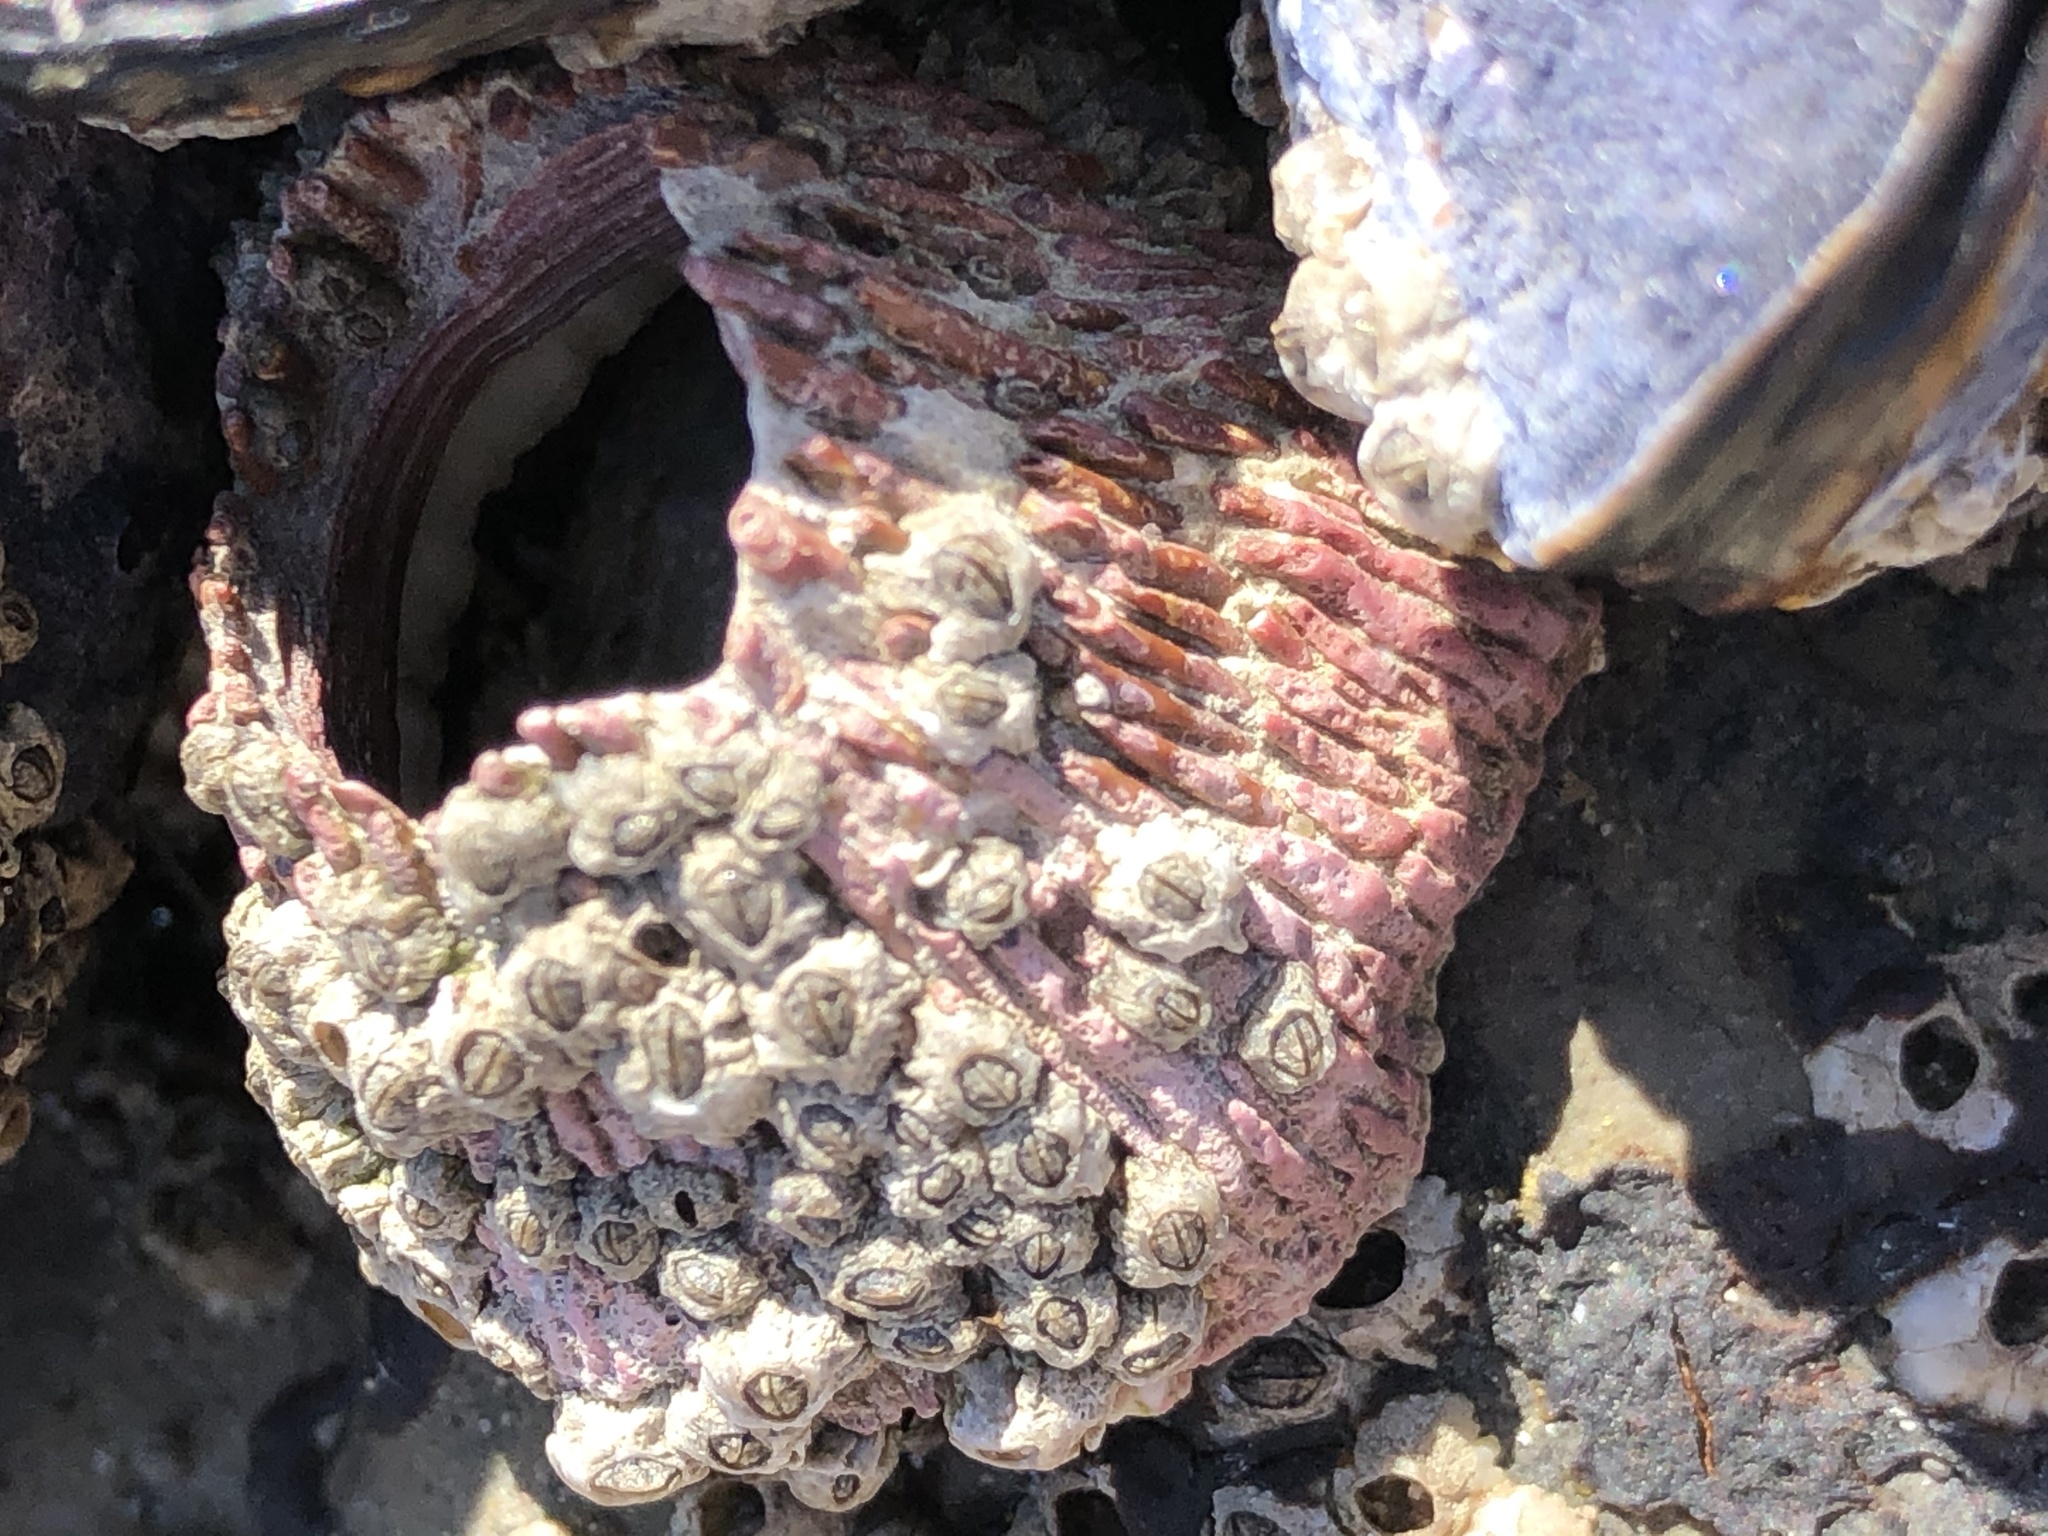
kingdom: Animalia
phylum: Arthropoda
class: Maxillopoda
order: Sessilia
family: Tetraclitidae
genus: Tetraclita
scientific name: Tetraclita rubescens
